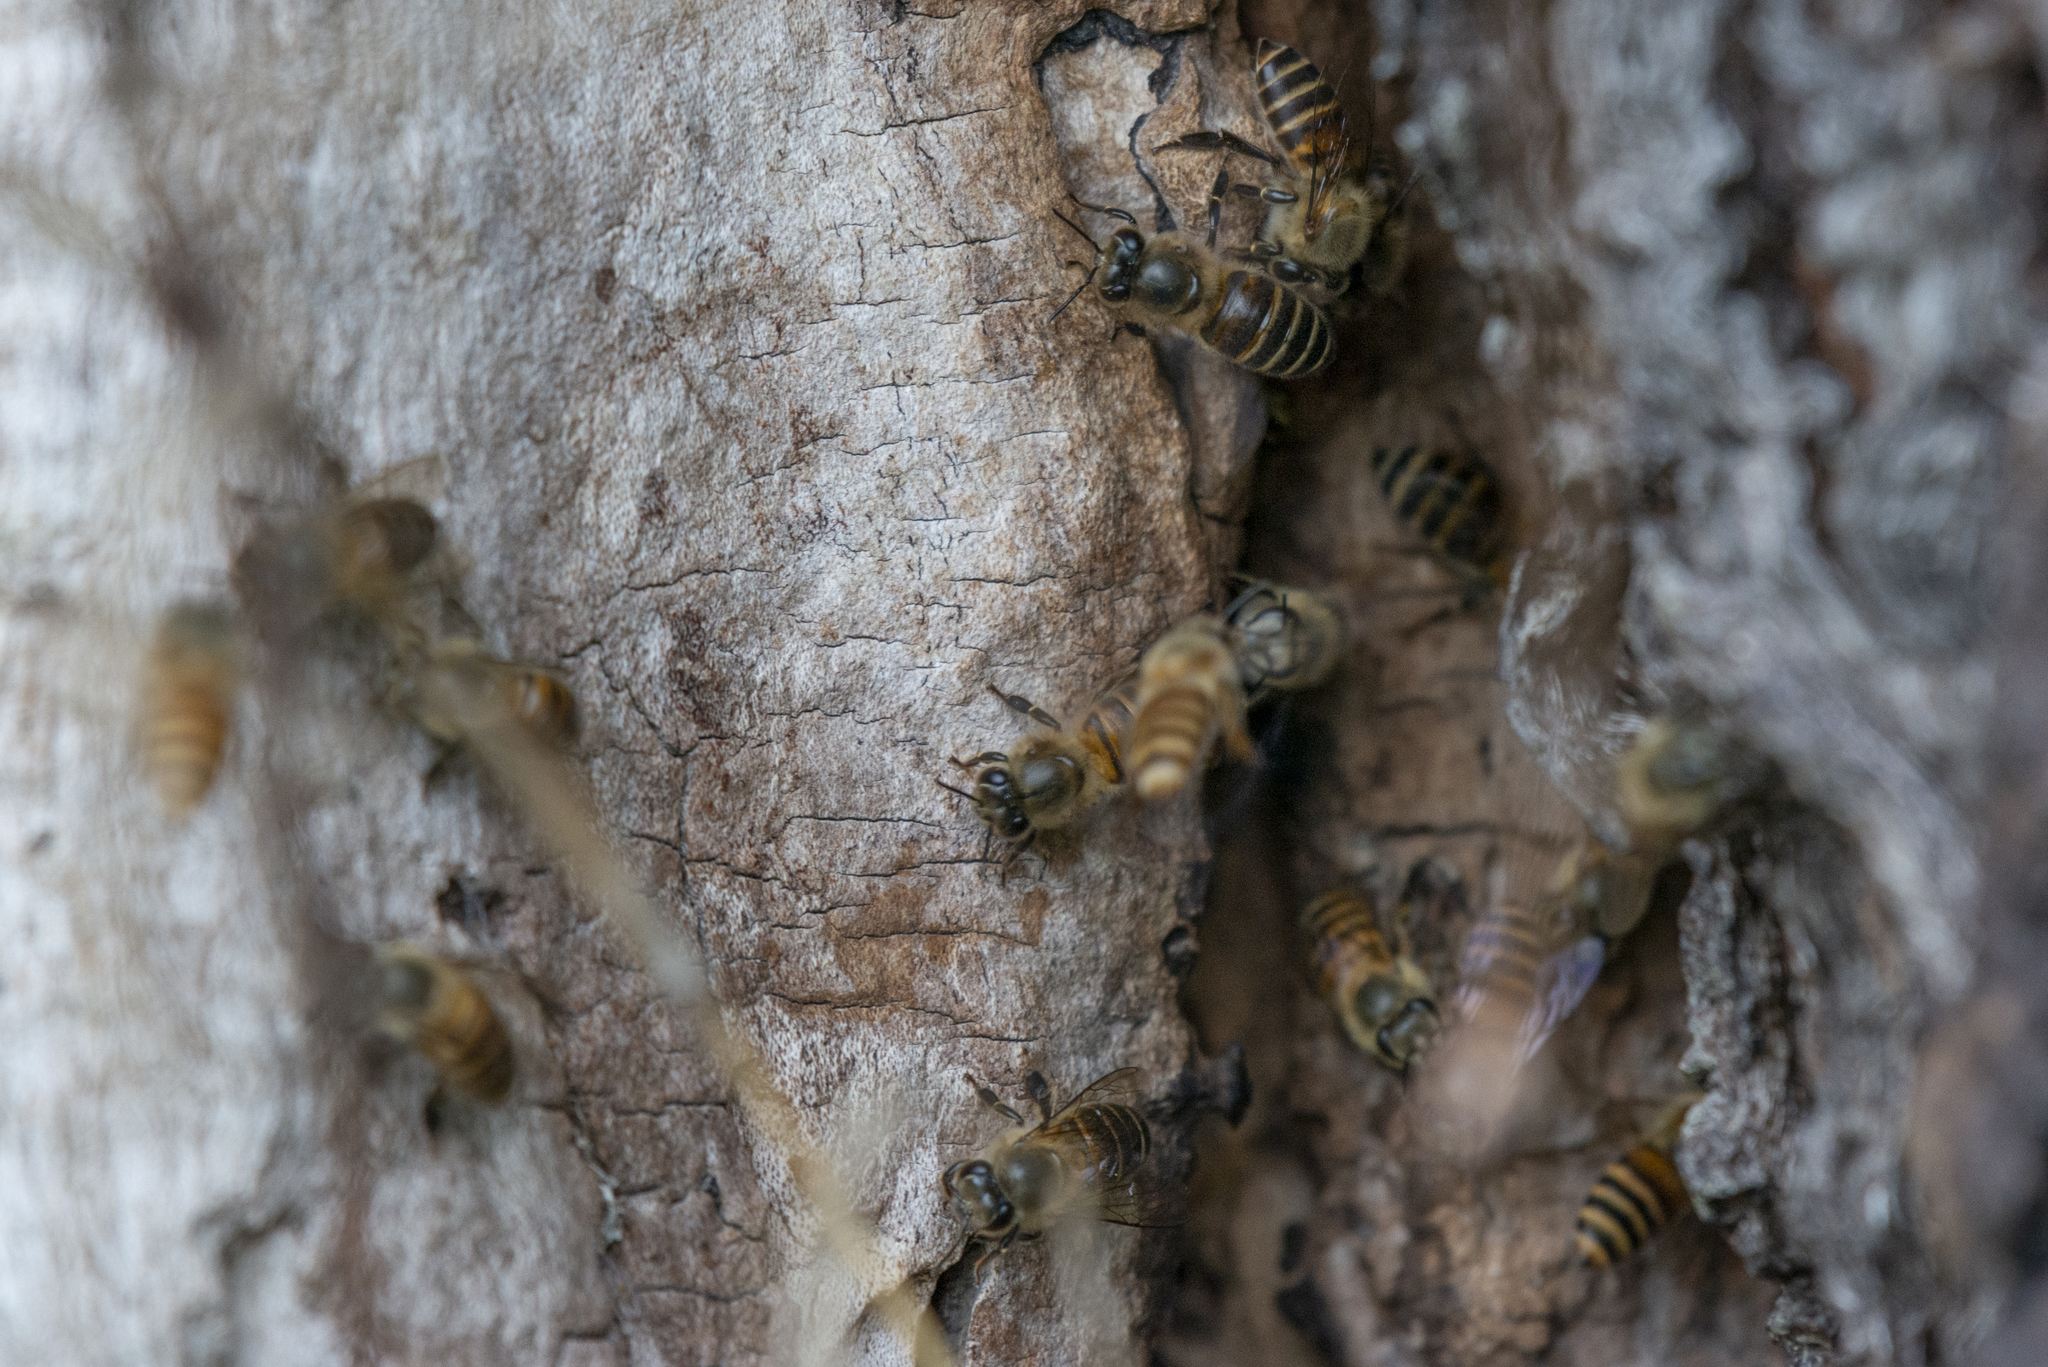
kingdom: Animalia
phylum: Arthropoda
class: Insecta
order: Hymenoptera
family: Apidae
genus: Apis
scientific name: Apis cerana
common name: Honey bee
